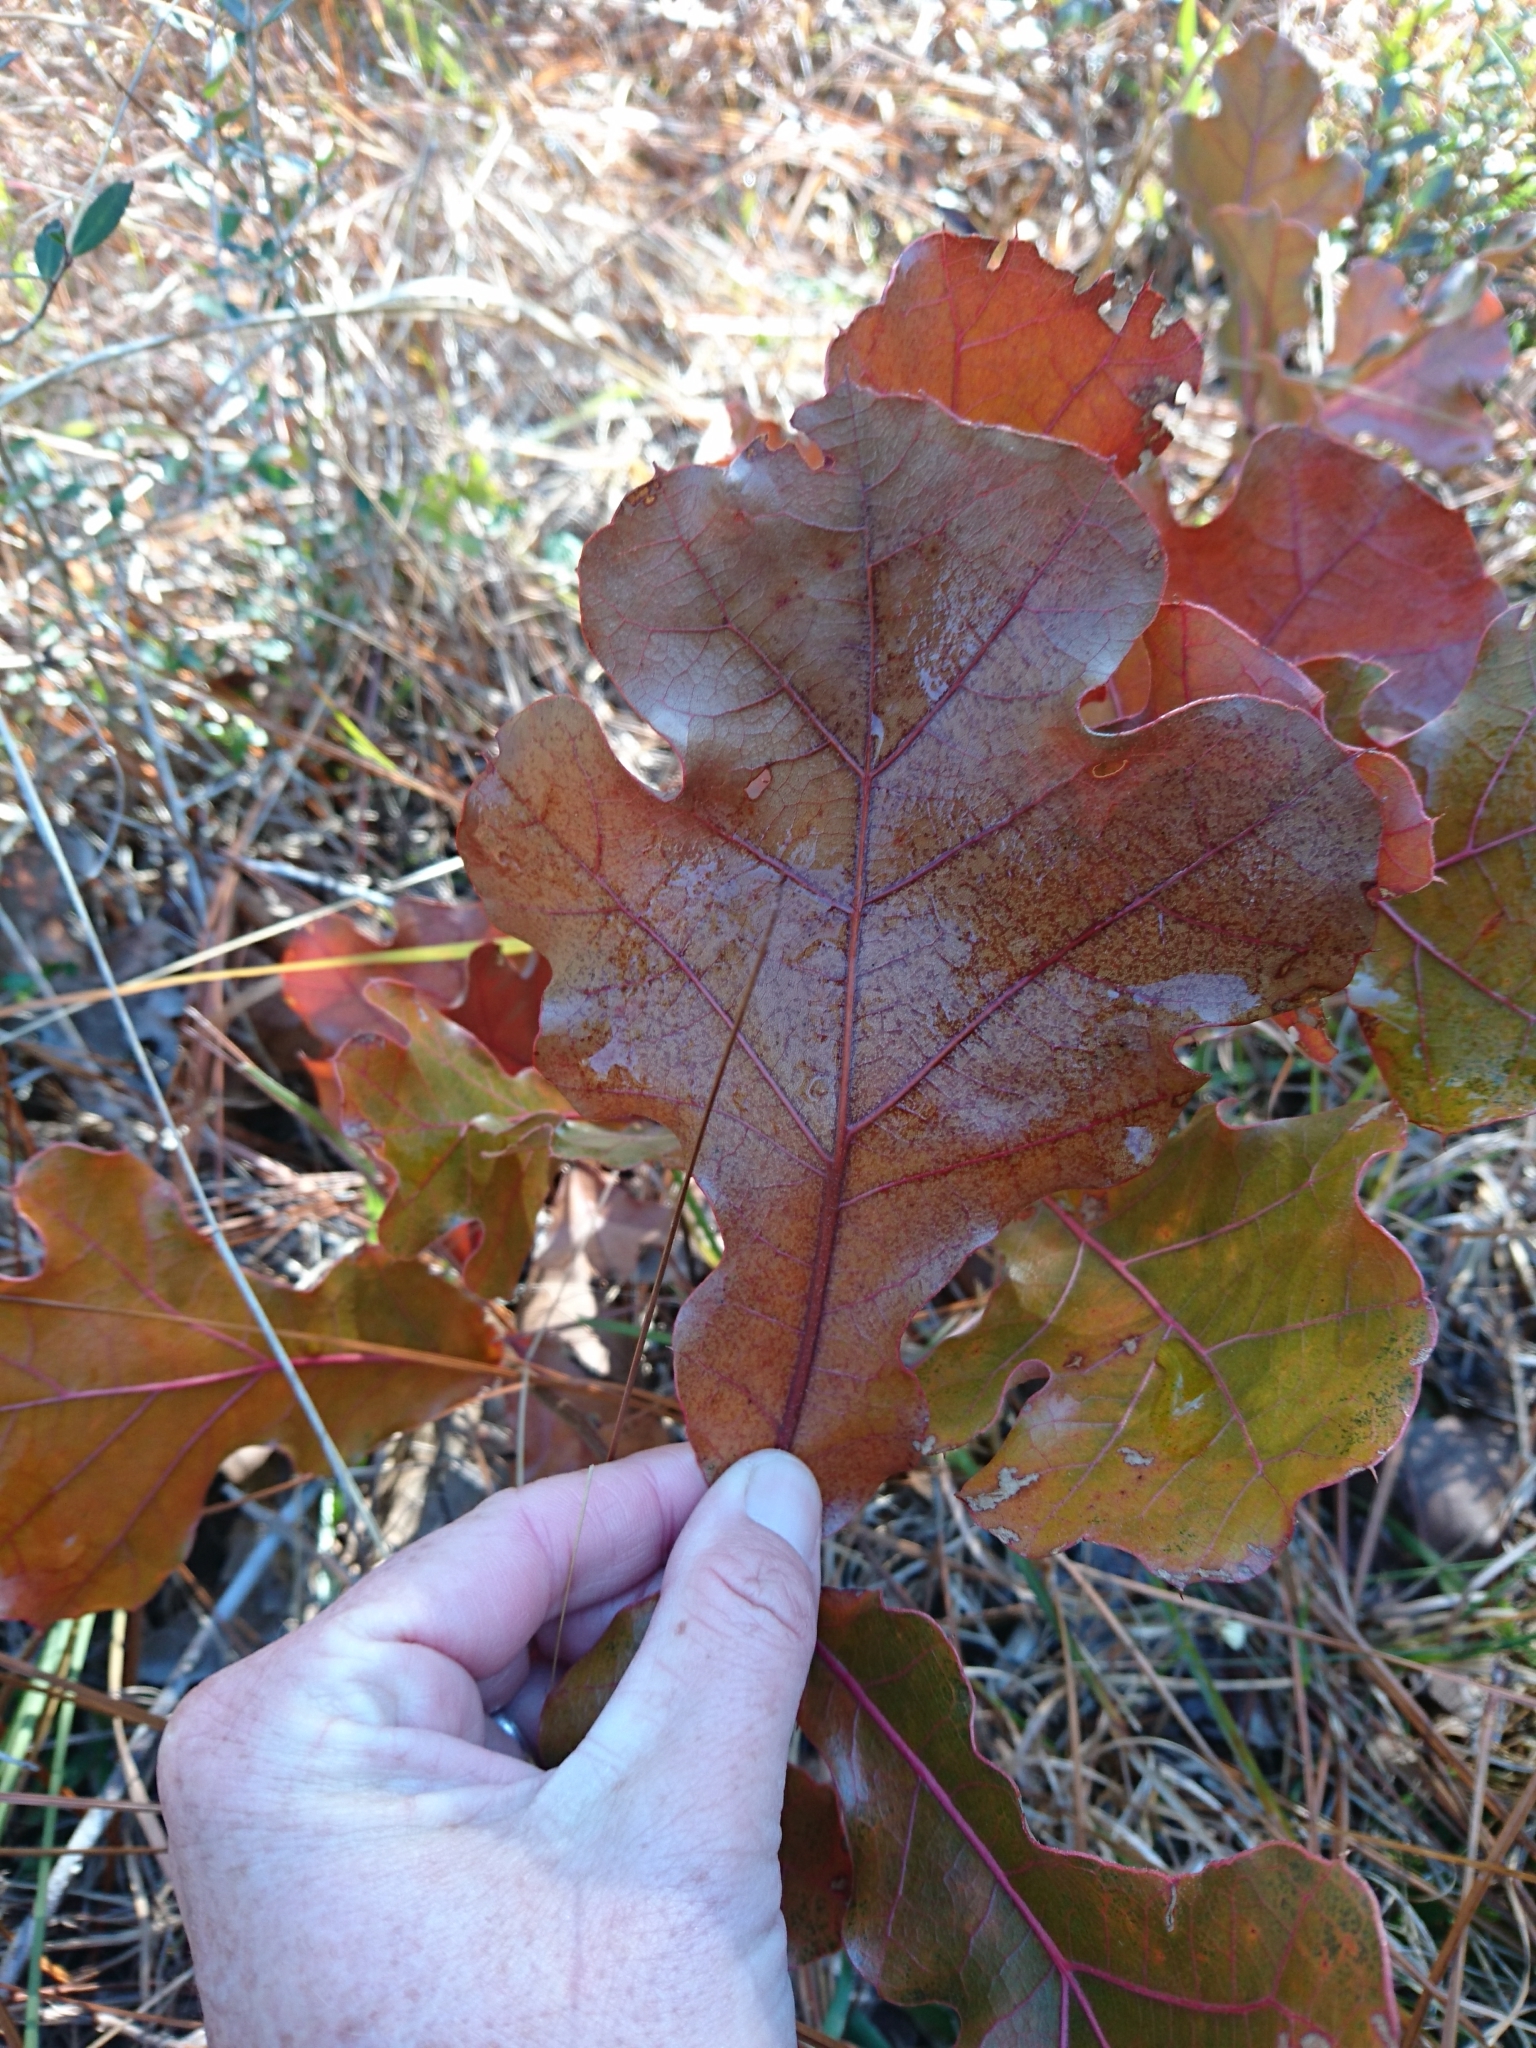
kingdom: Plantae
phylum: Tracheophyta
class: Magnoliopsida
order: Fagales
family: Fagaceae
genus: Quercus
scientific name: Quercus marilandica
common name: Blackjack oak
